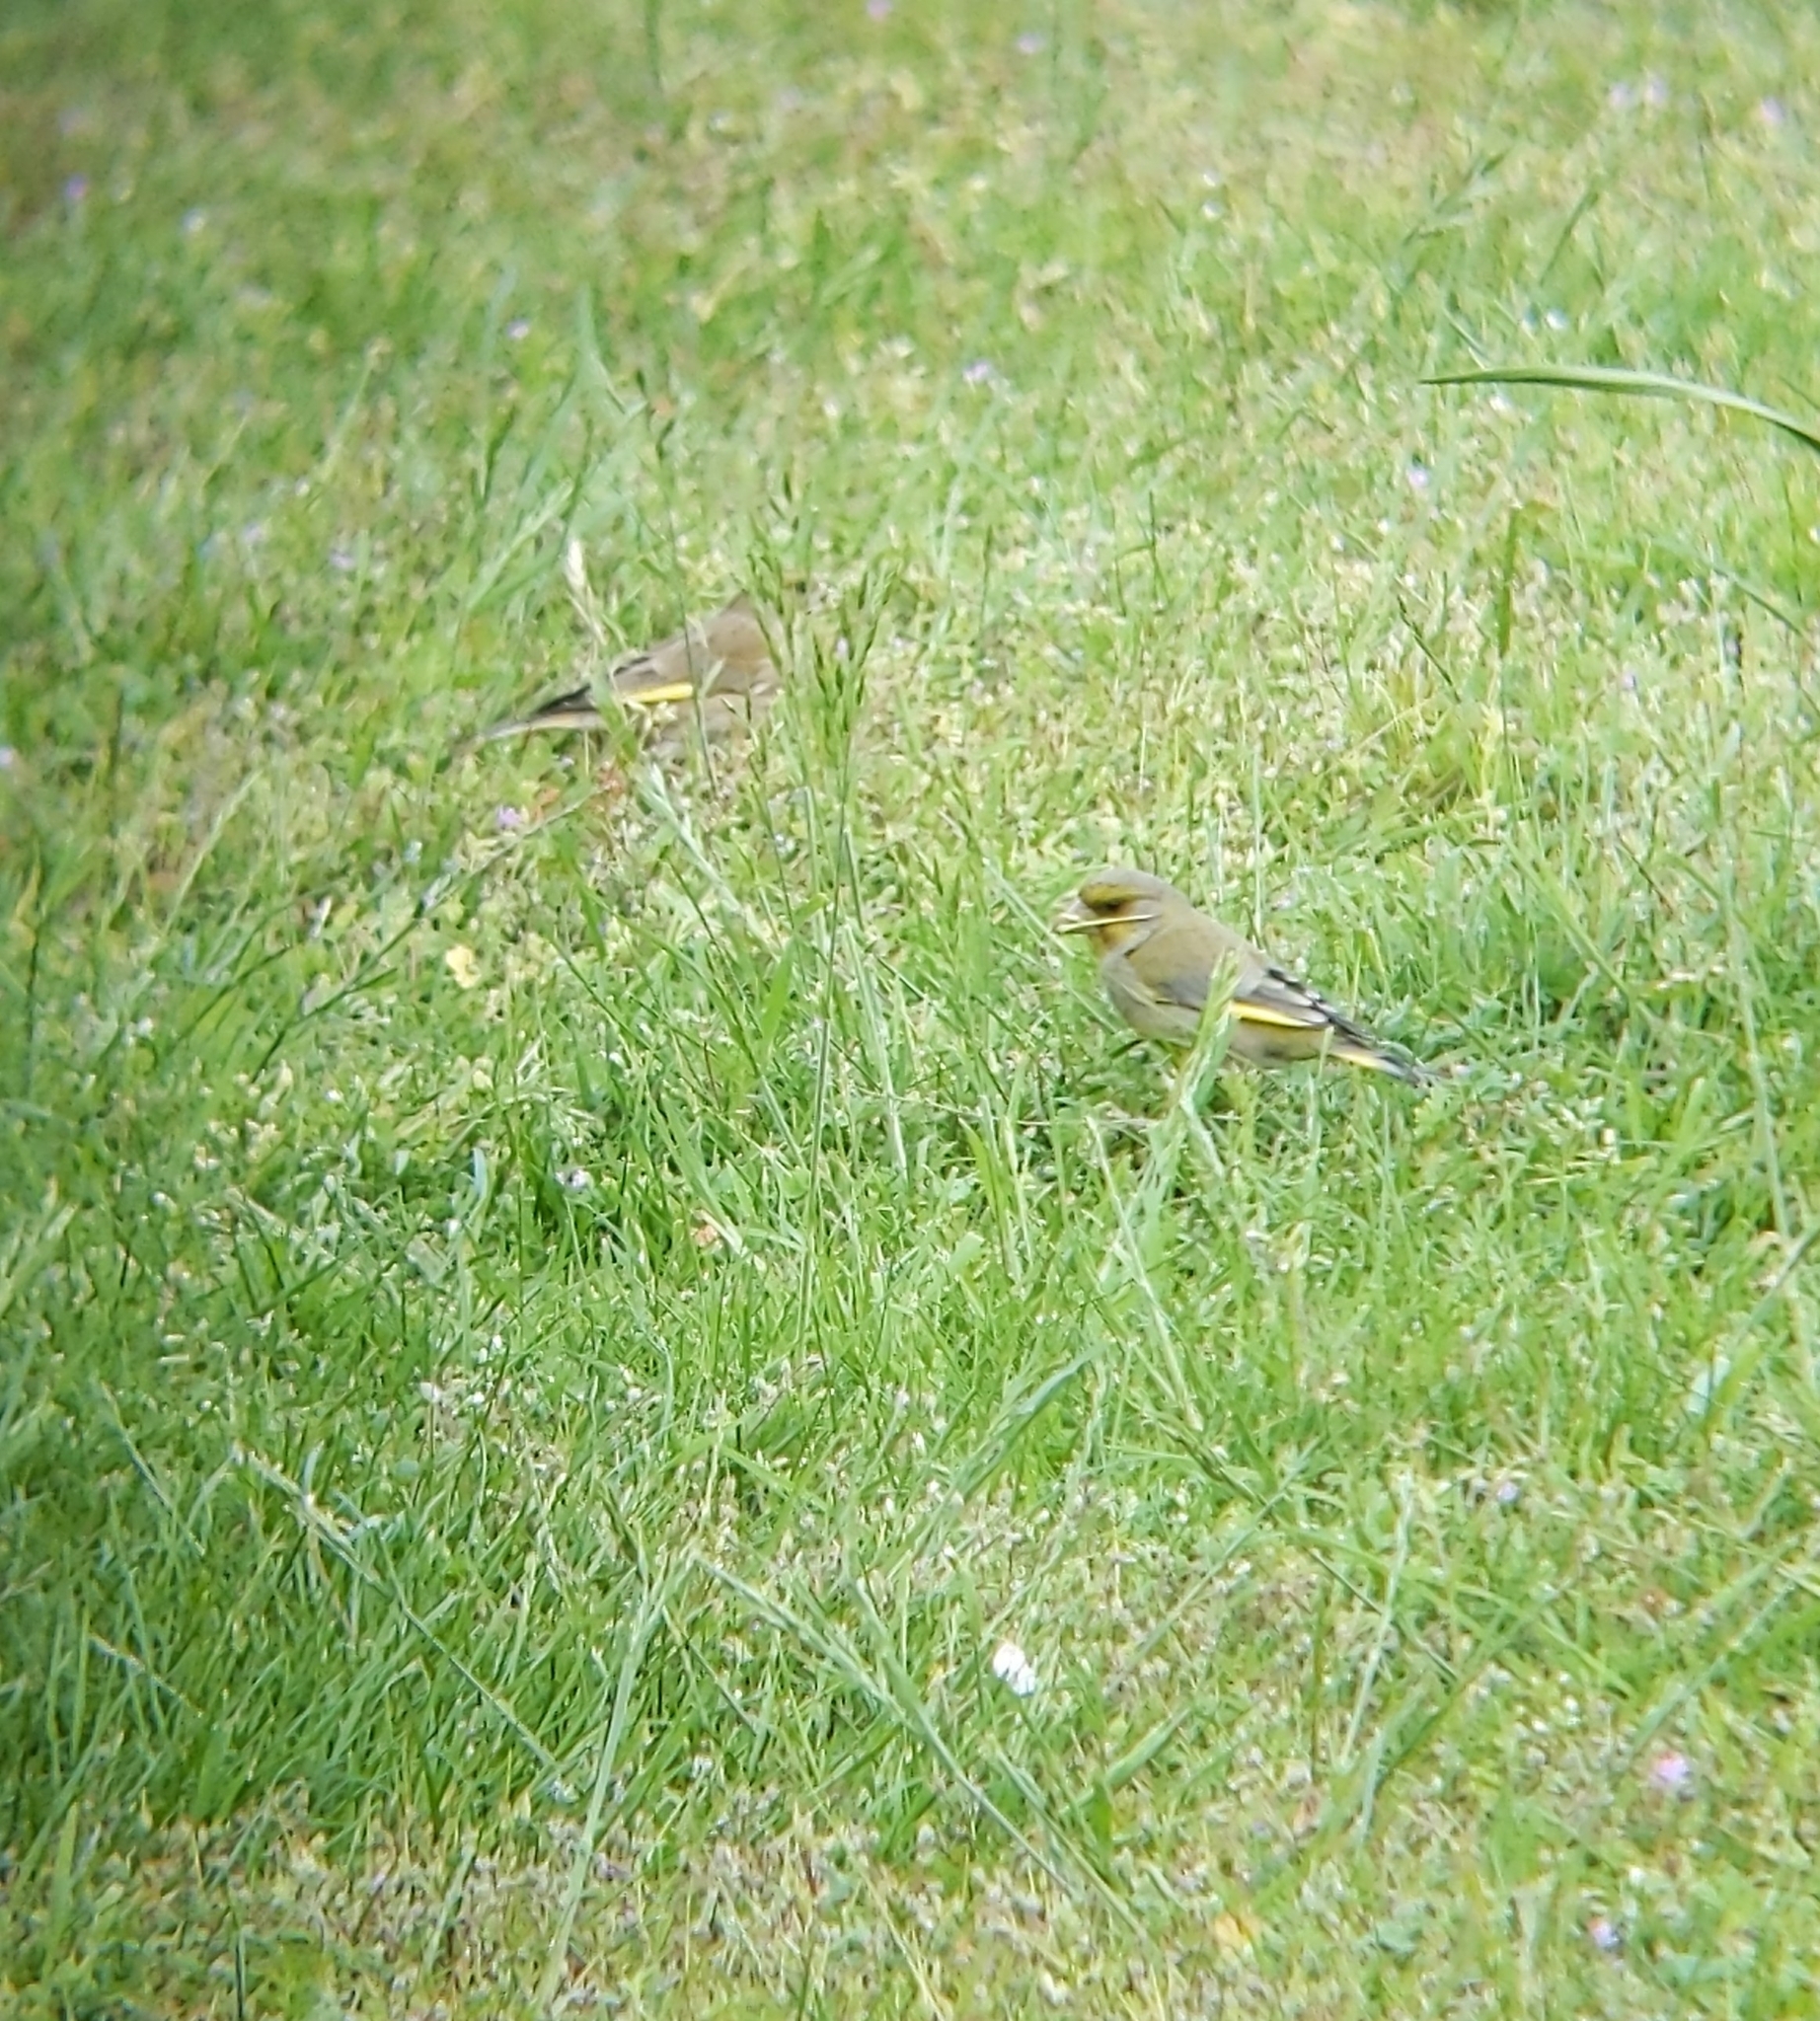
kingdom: Plantae
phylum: Tracheophyta
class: Liliopsida
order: Poales
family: Poaceae
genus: Chloris
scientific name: Chloris chloris
